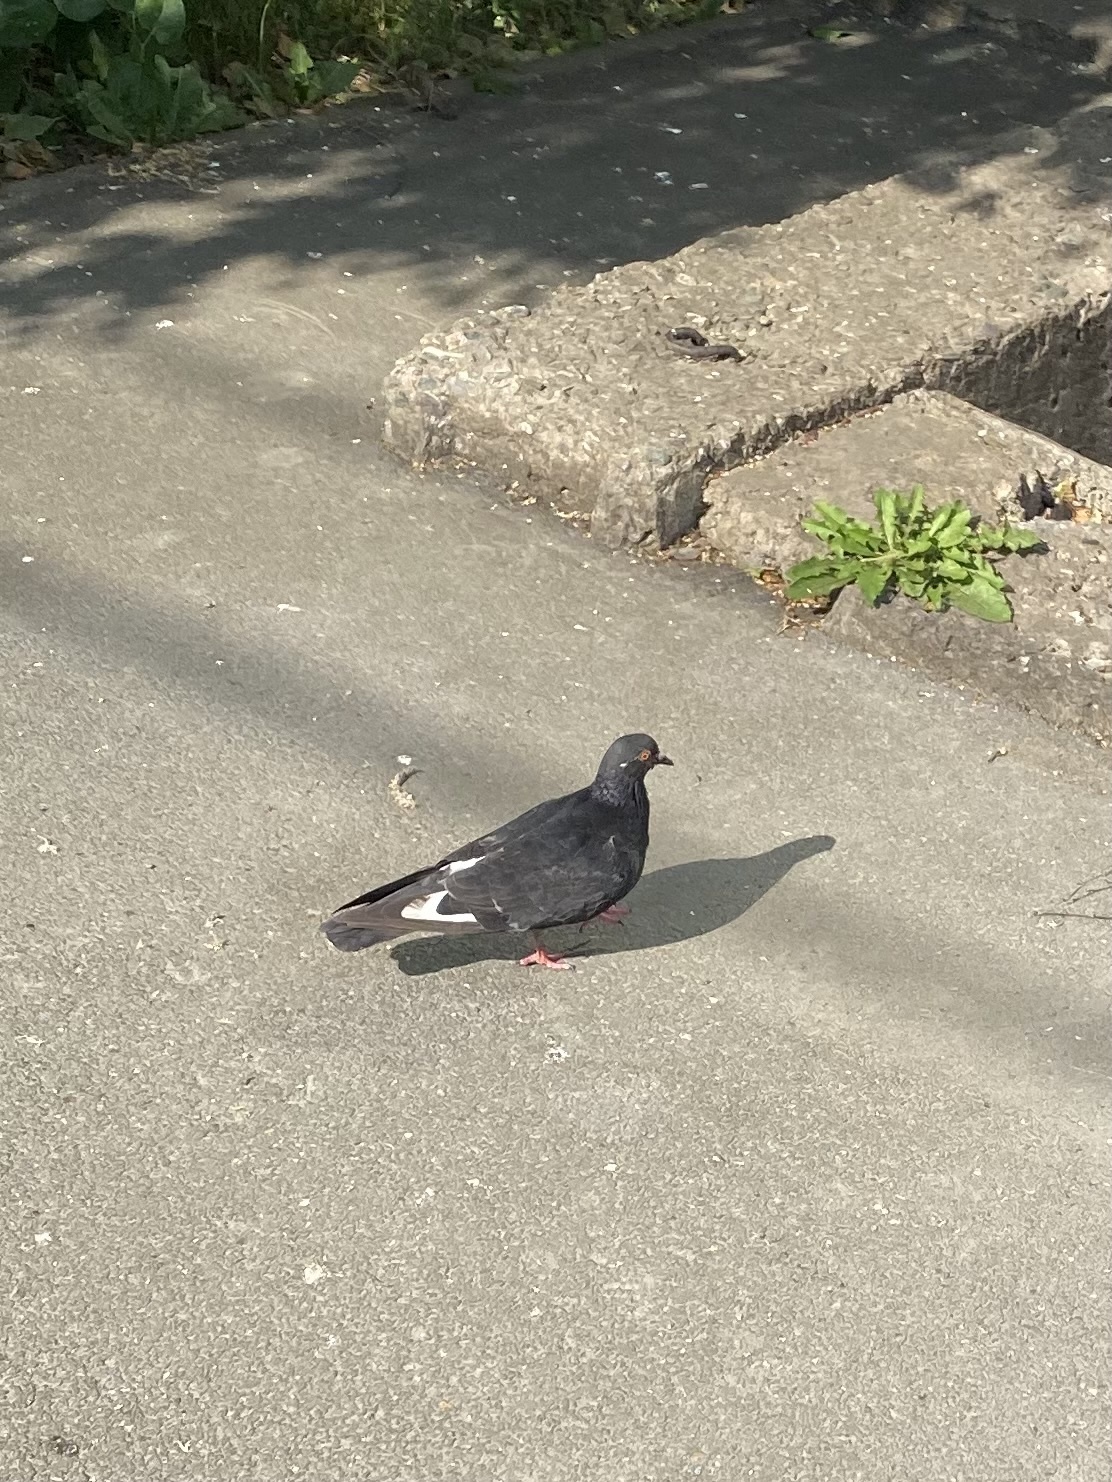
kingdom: Animalia
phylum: Chordata
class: Aves
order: Columbiformes
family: Columbidae
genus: Columba
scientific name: Columba livia
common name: Rock pigeon
